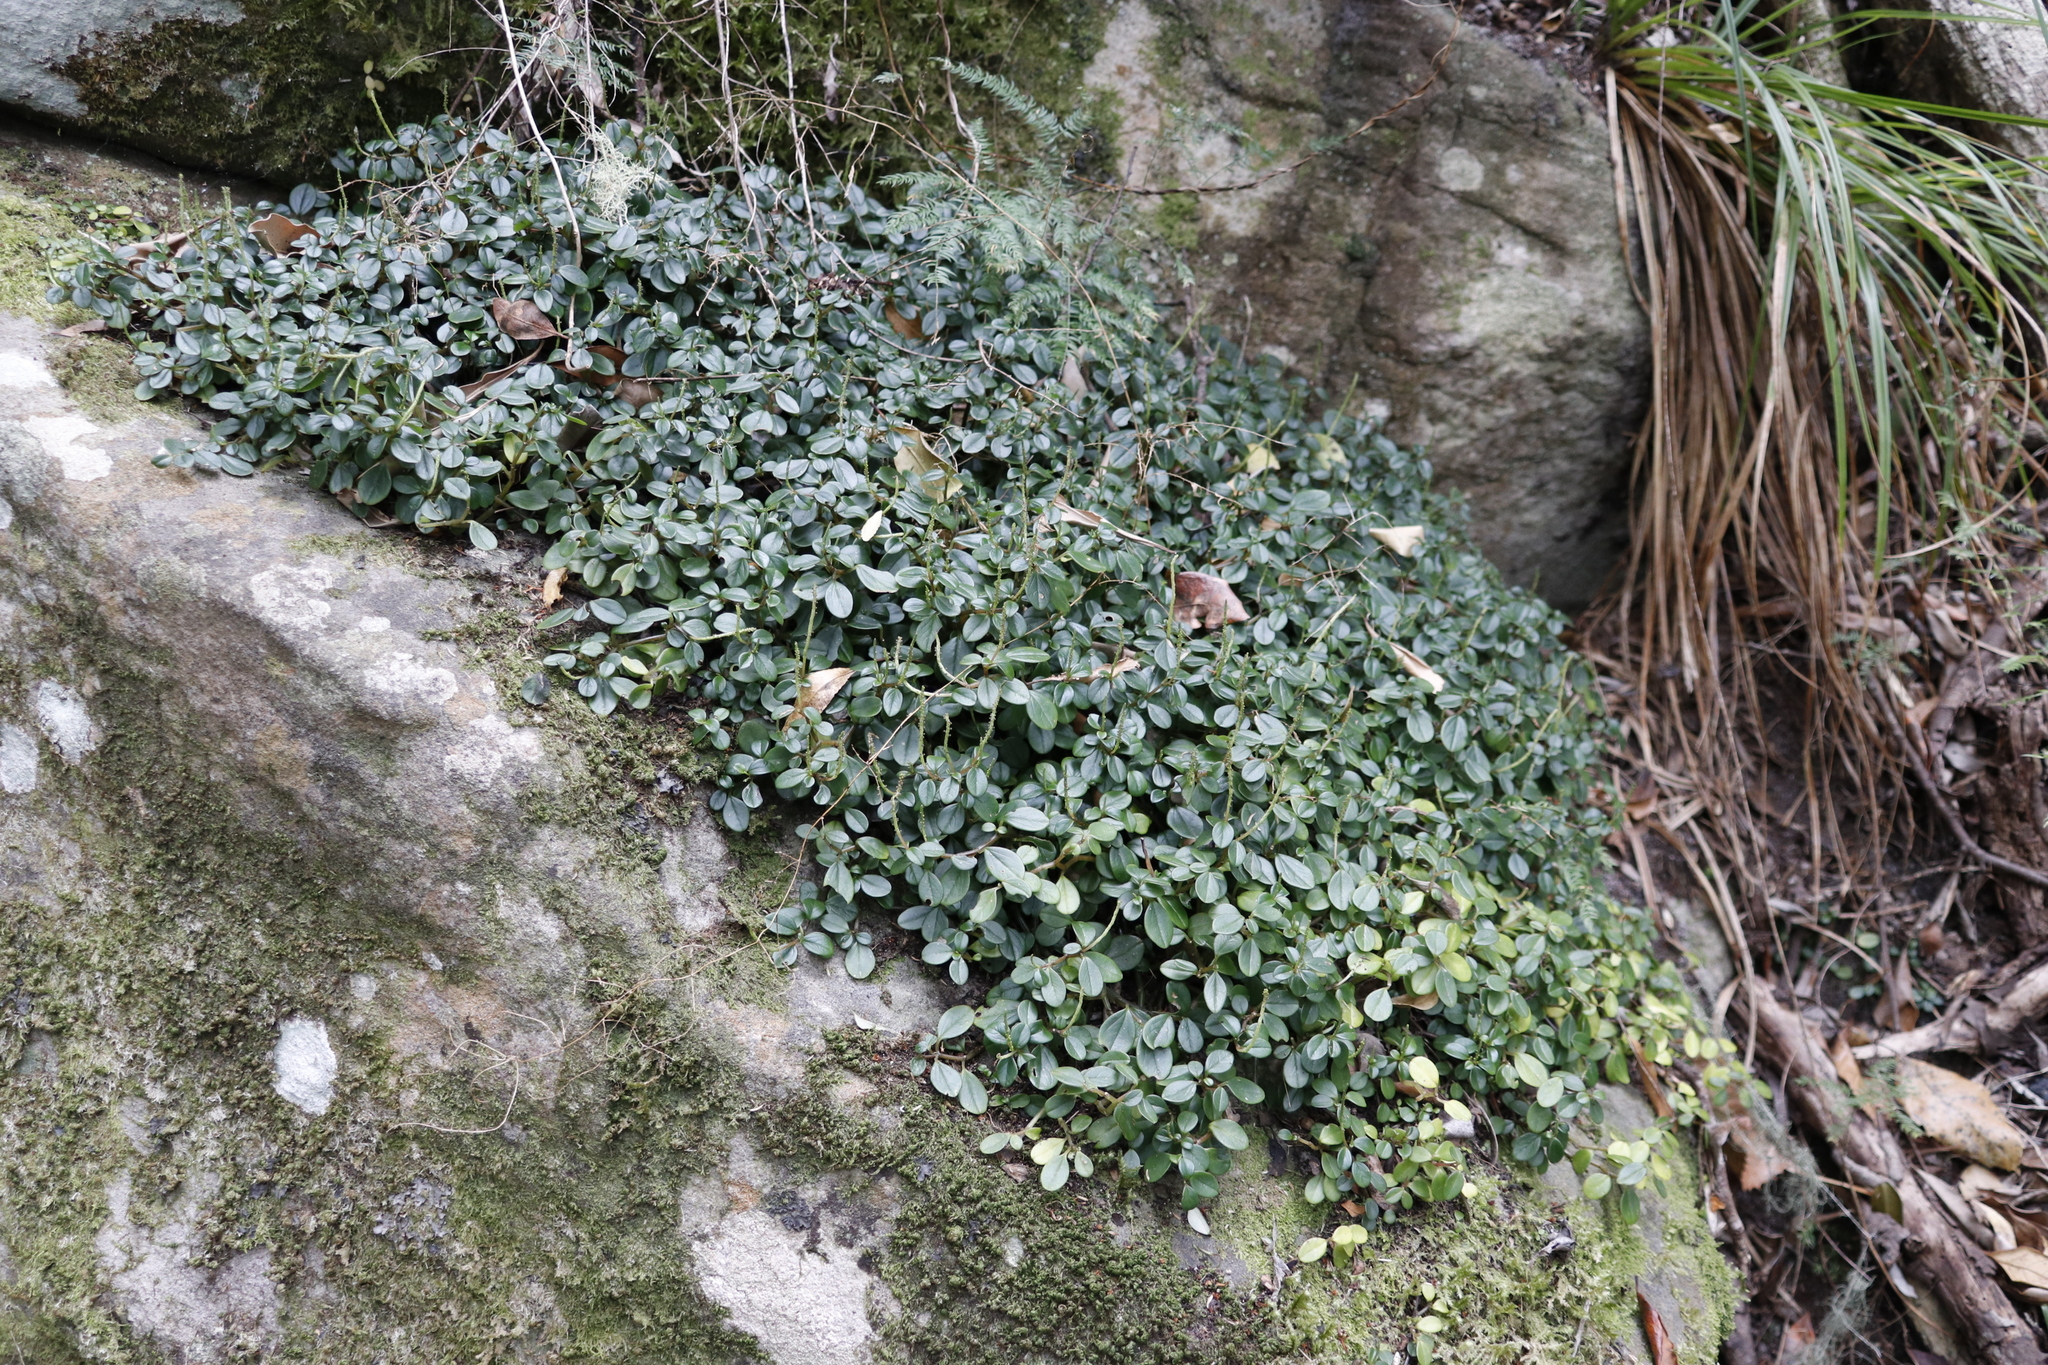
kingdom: Plantae
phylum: Tracheophyta
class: Magnoliopsida
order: Piperales
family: Piperaceae
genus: Peperomia
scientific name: Peperomia retusa
